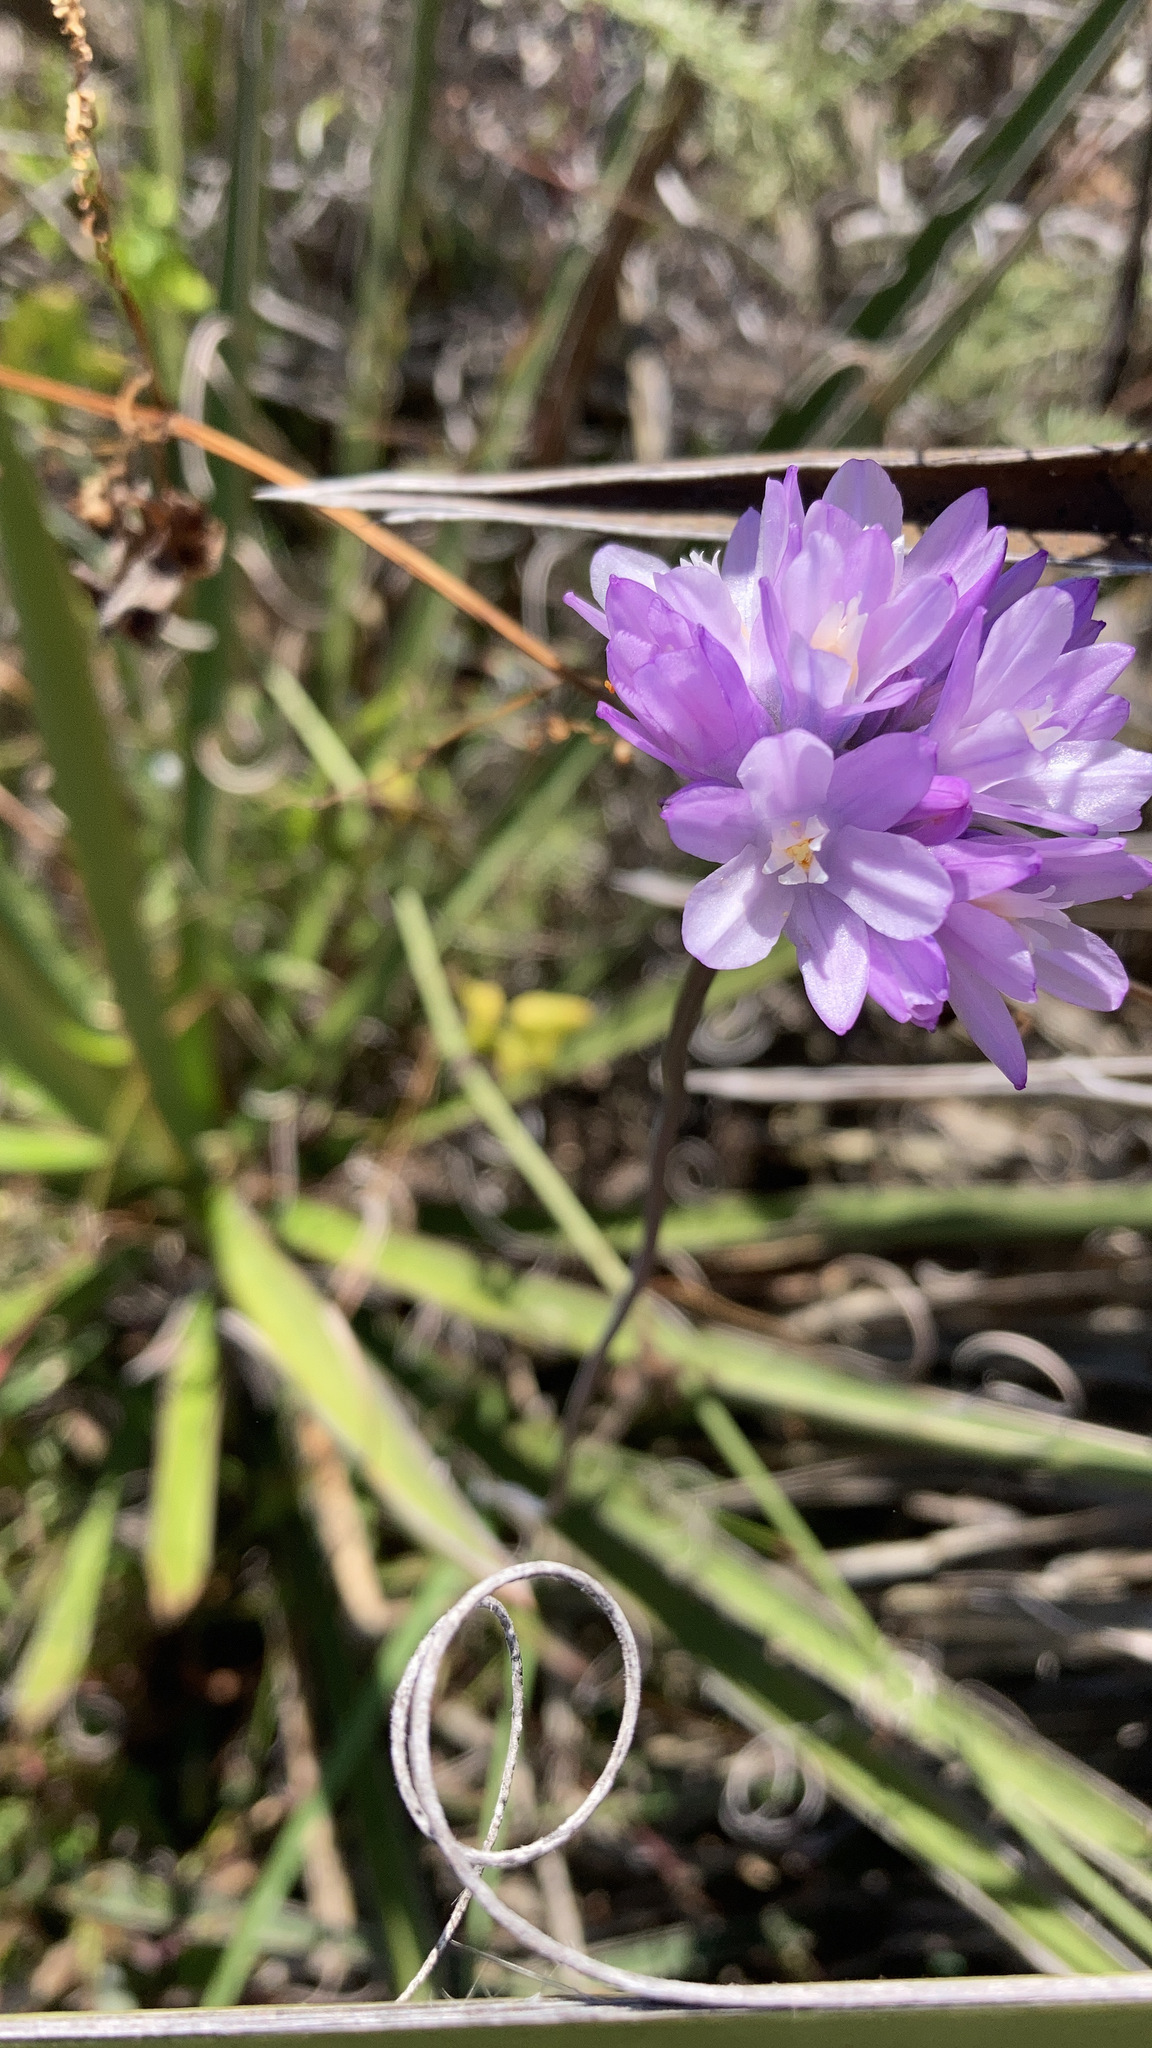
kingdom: Plantae
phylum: Tracheophyta
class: Liliopsida
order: Asparagales
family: Asparagaceae
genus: Dipterostemon
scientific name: Dipterostemon capitatus
